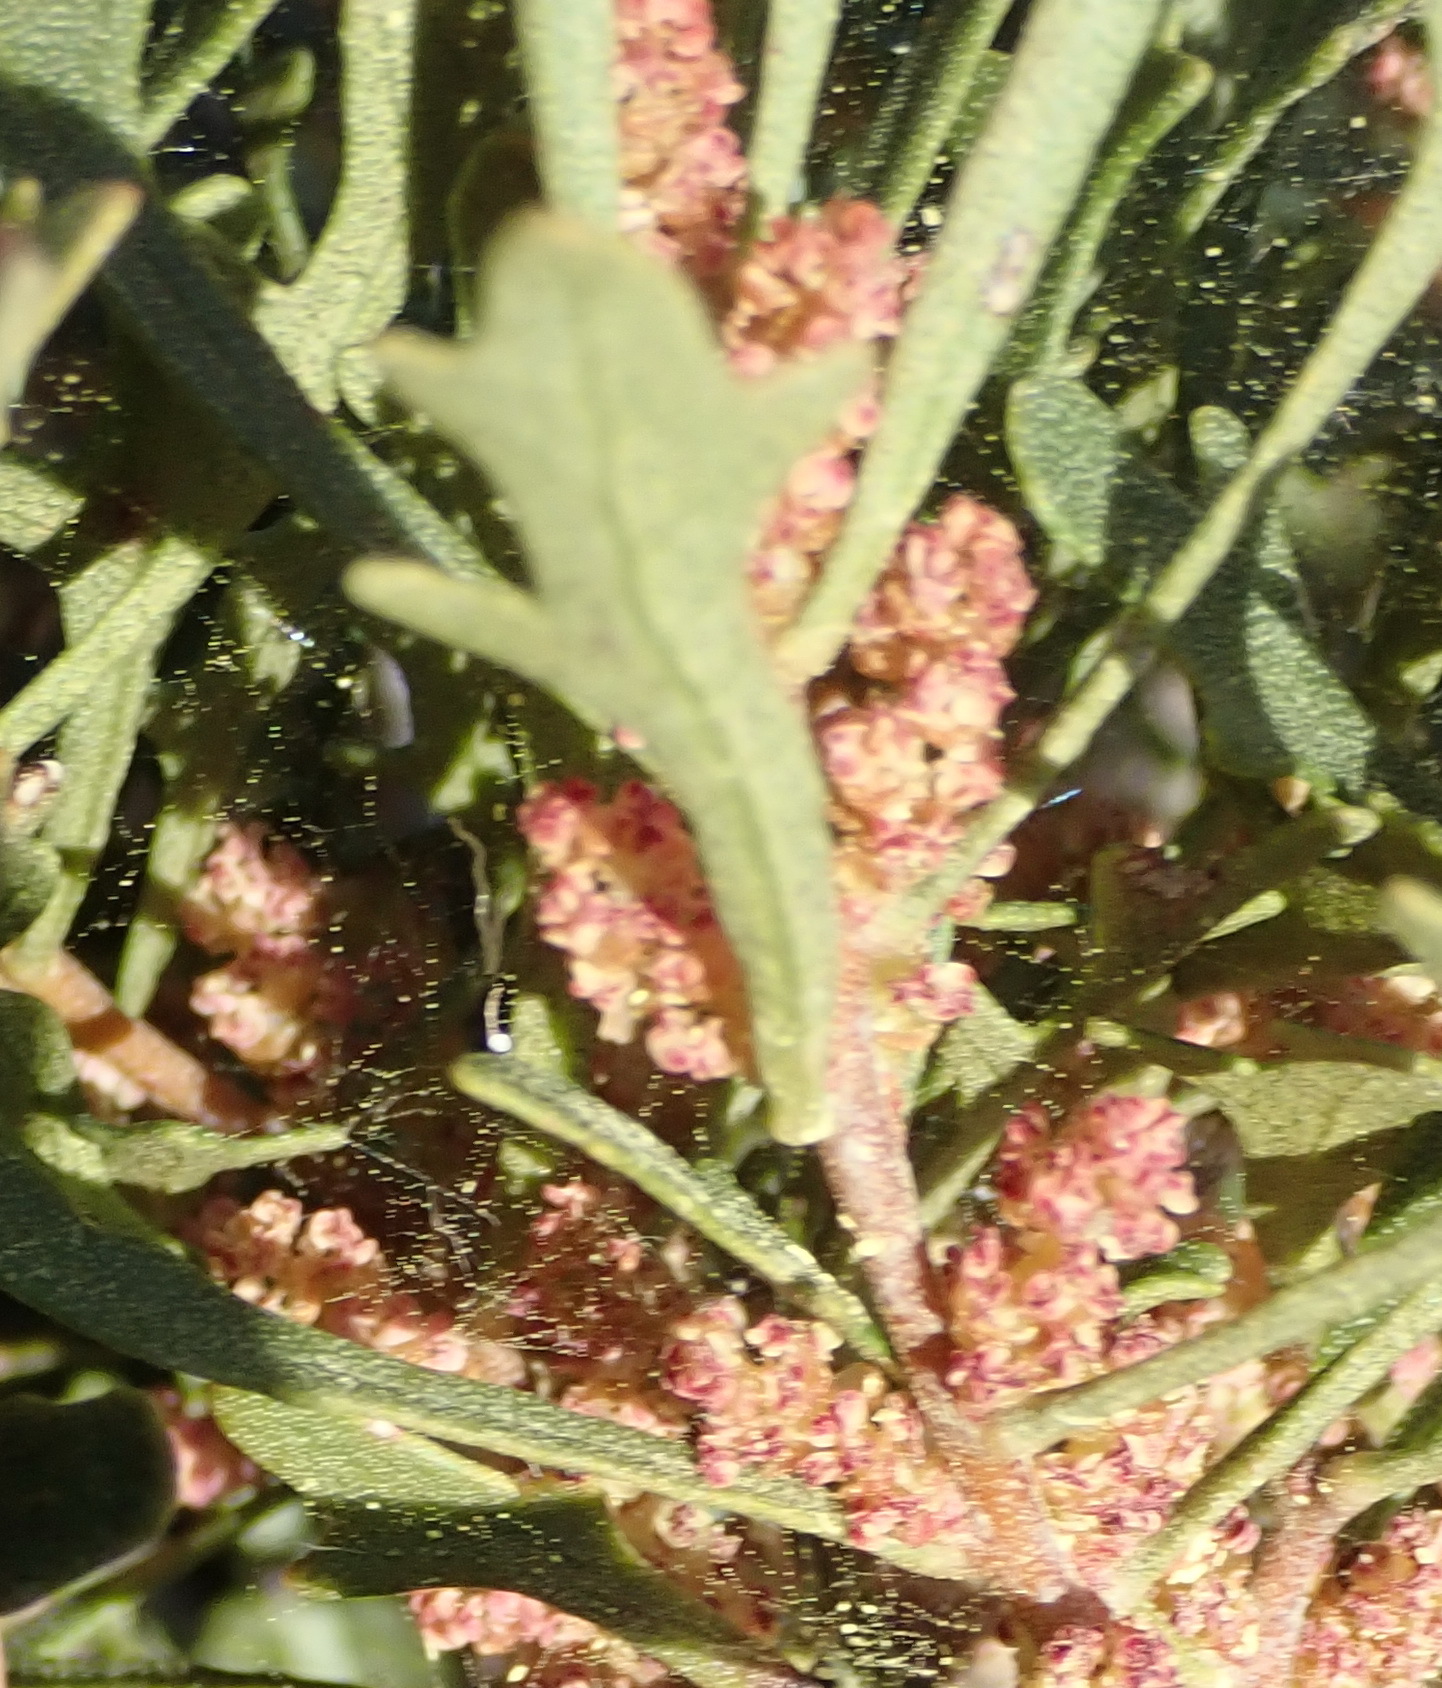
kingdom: Plantae
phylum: Tracheophyta
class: Magnoliopsida
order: Fagales
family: Myricaceae
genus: Morella
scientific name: Morella quercifolia
